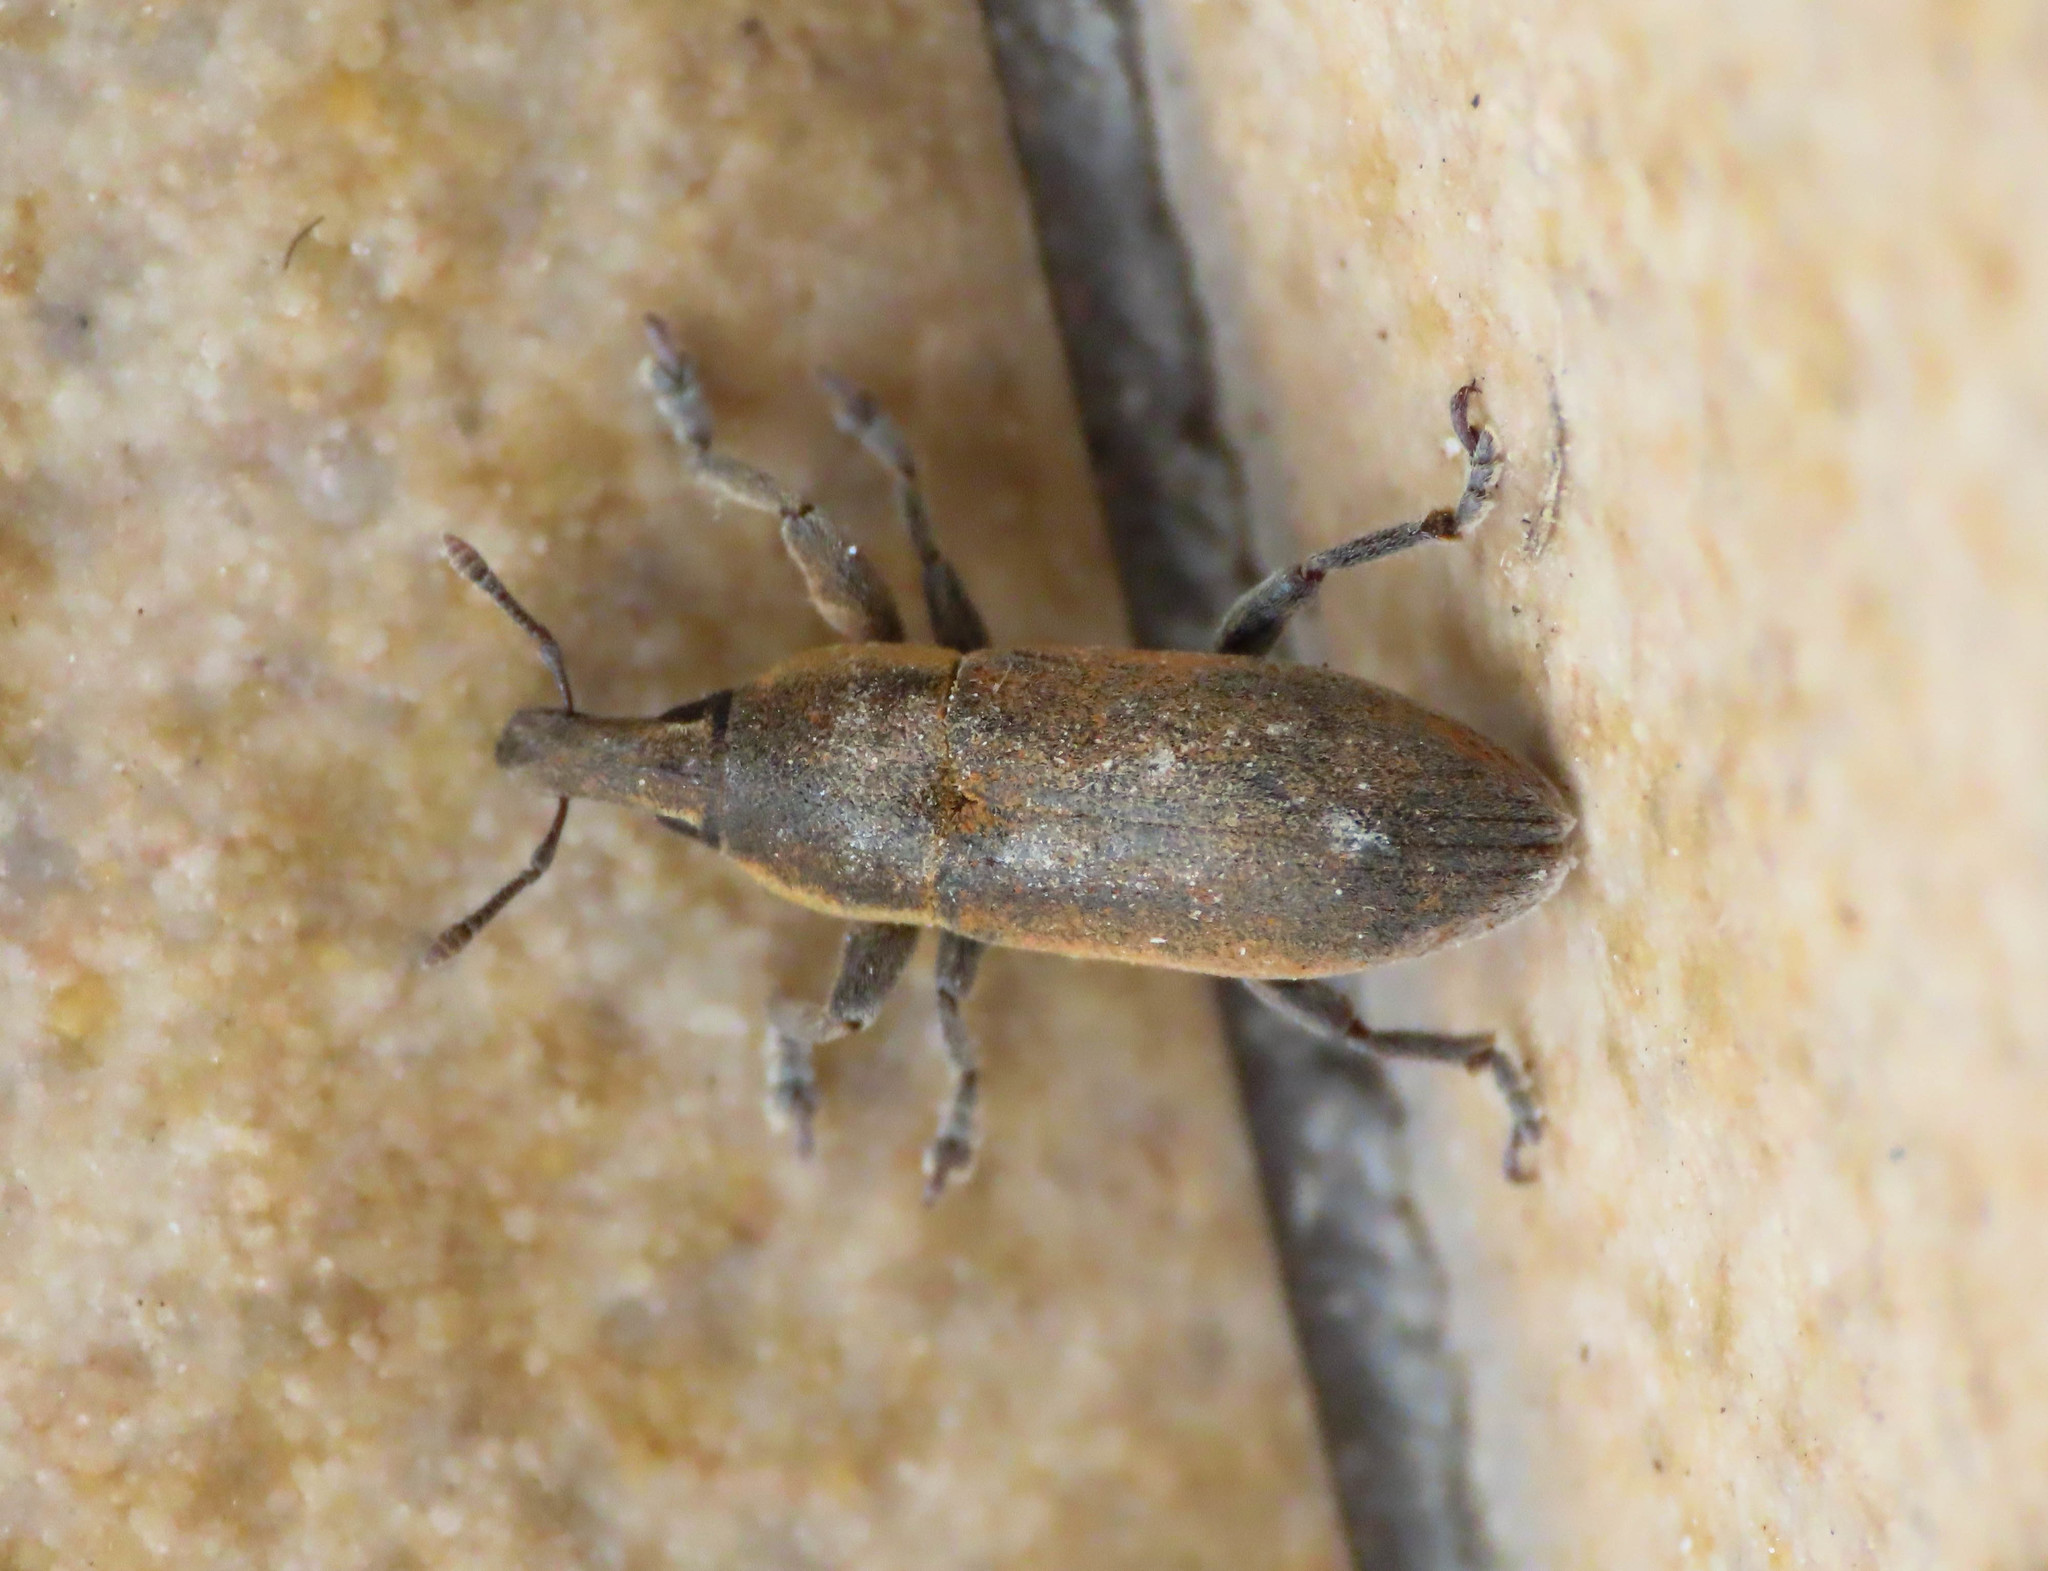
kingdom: Animalia
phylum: Arthropoda
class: Insecta
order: Coleoptera
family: Curculionidae
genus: Lixus
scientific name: Lixus angustus
